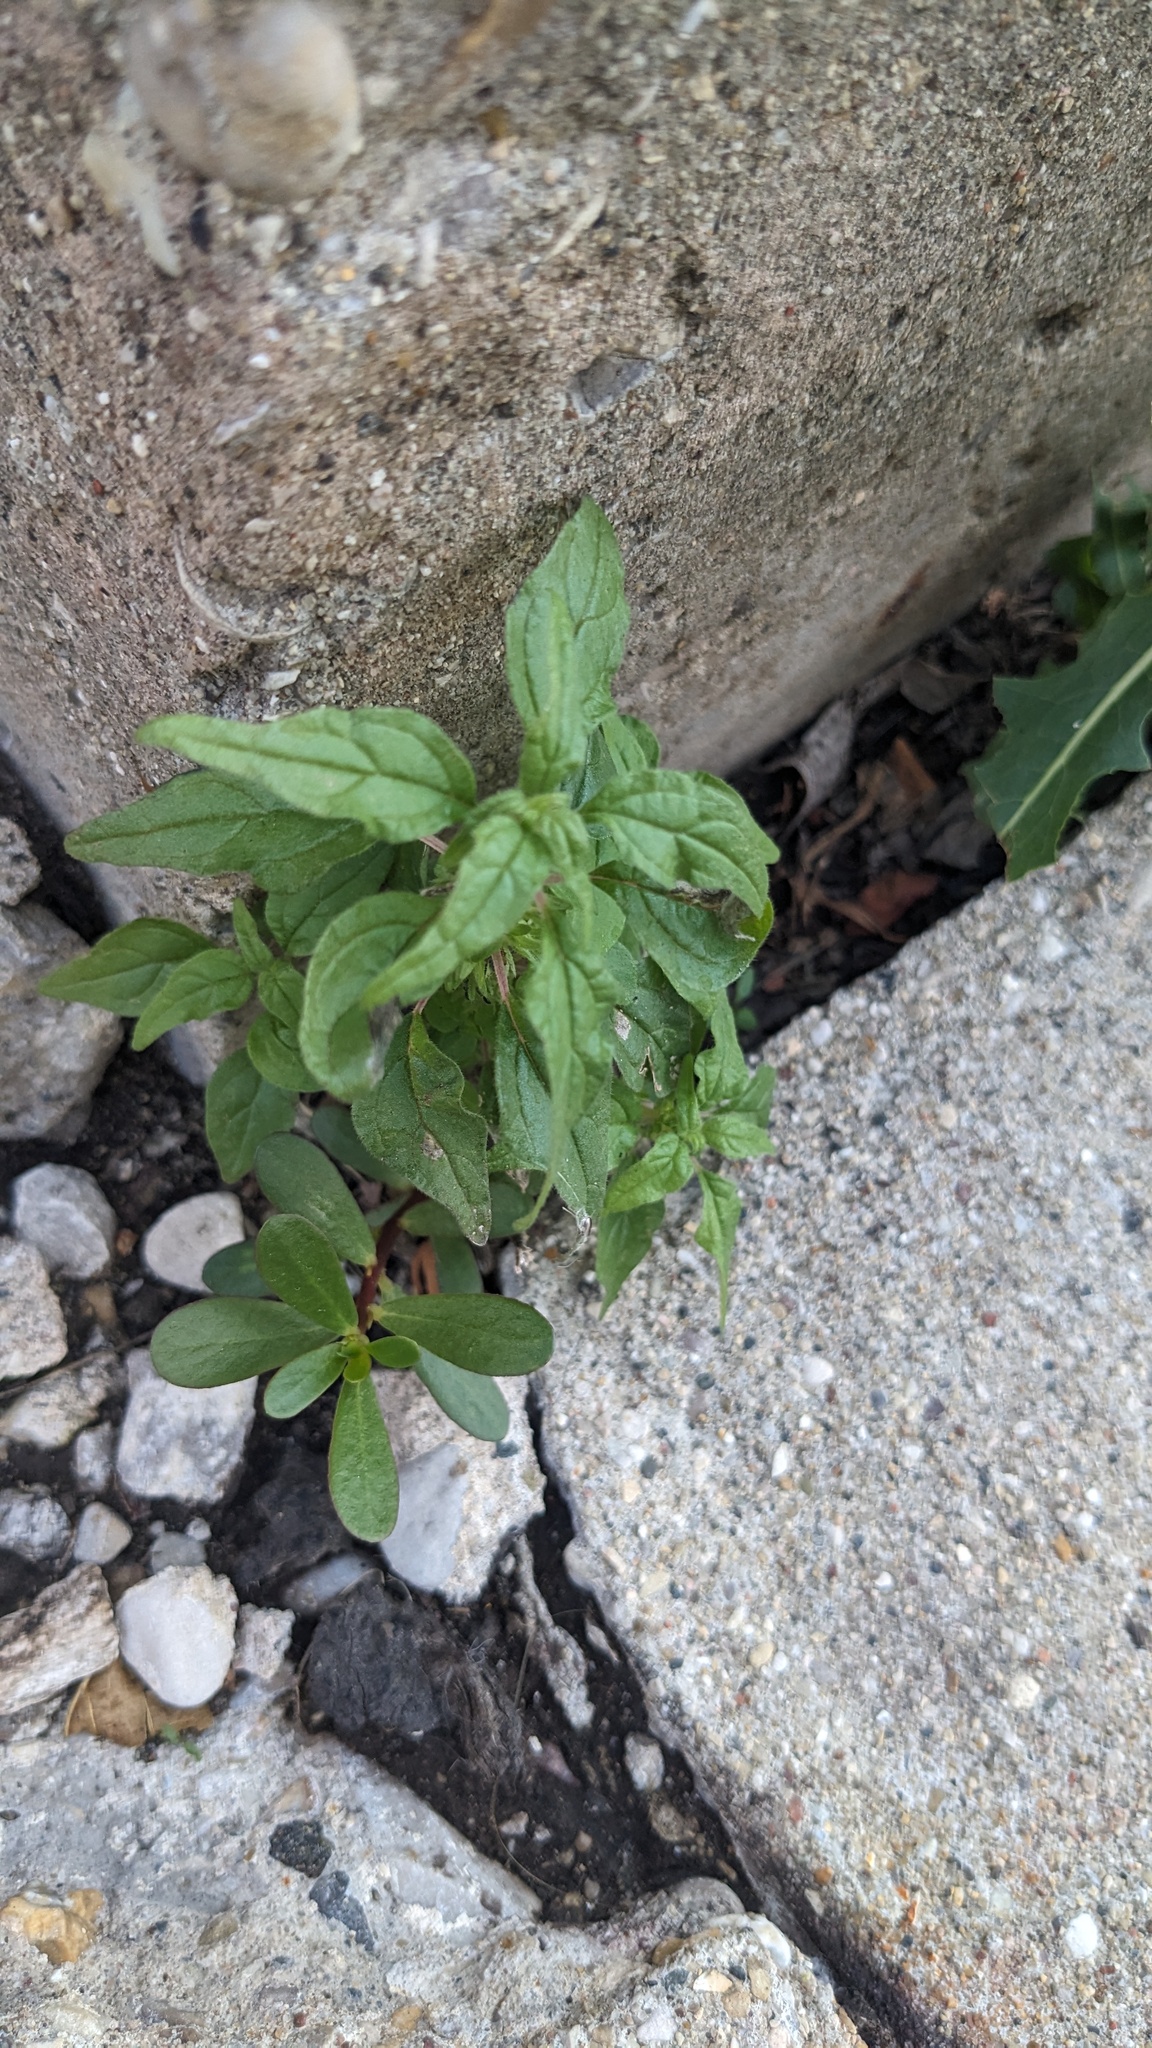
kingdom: Plantae
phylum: Tracheophyta
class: Magnoliopsida
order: Rosales
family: Urticaceae
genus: Parietaria
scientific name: Parietaria pensylvanica
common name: Pennsylvania pellitory
